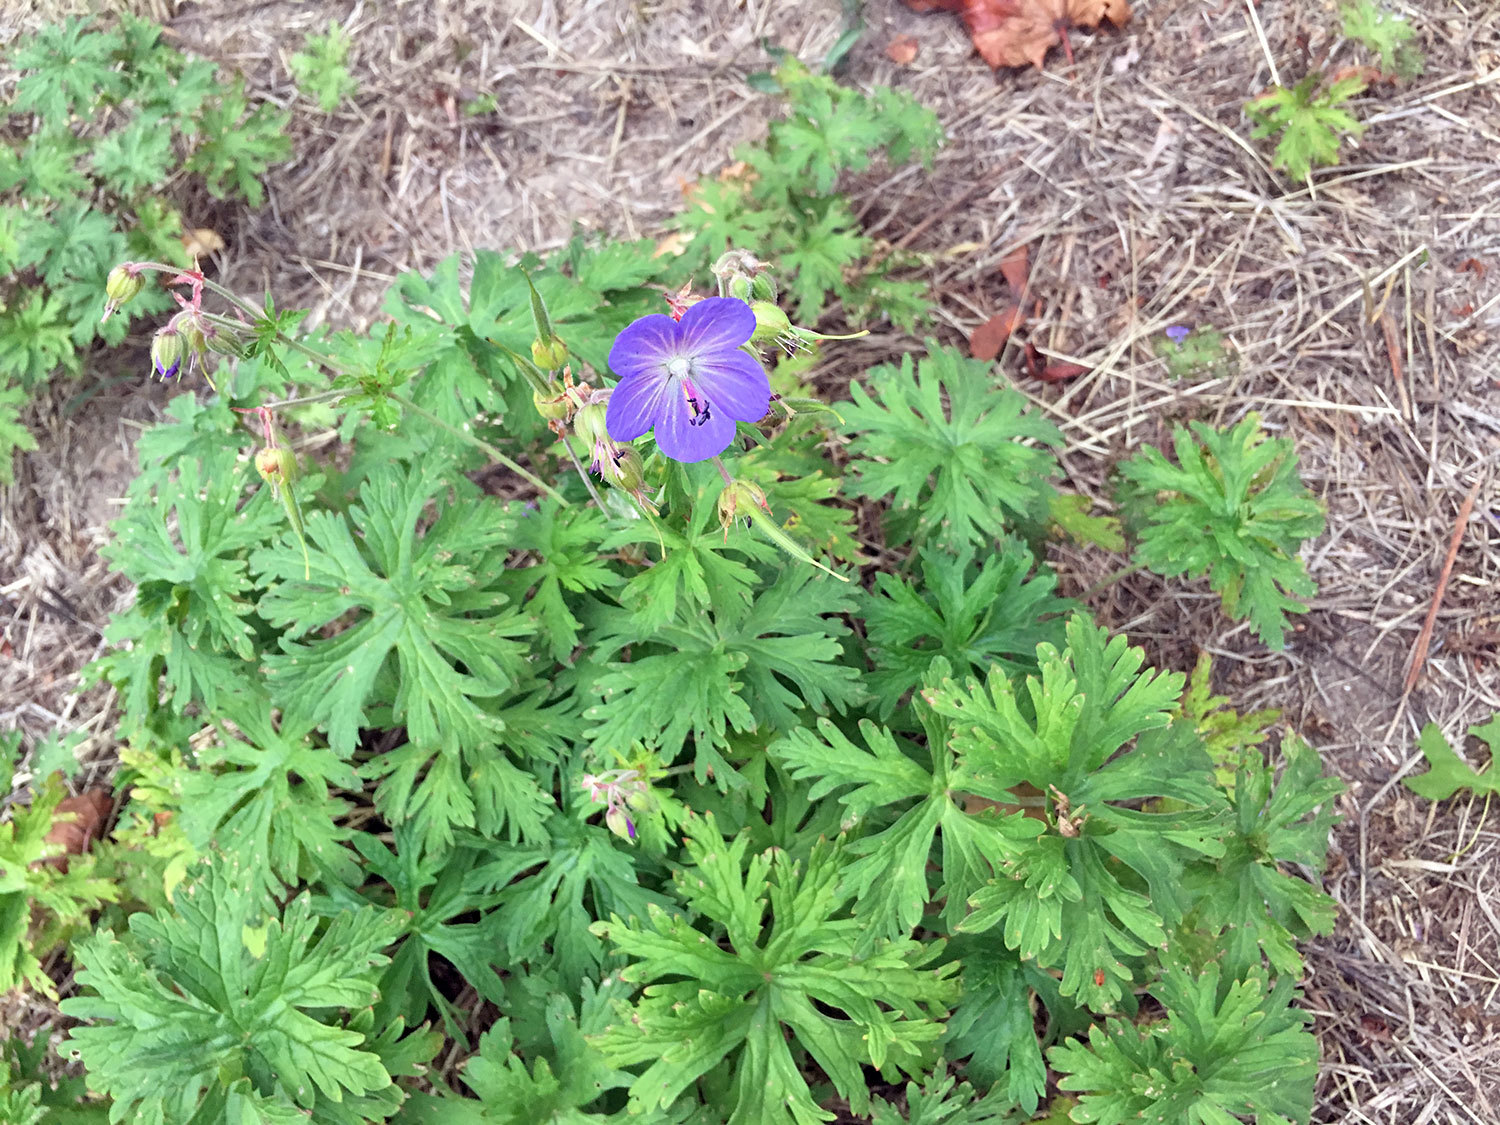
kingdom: Plantae
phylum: Tracheophyta
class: Magnoliopsida
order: Geraniales
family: Geraniaceae
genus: Geranium
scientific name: Geranium pratense
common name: Meadow crane's-bill
